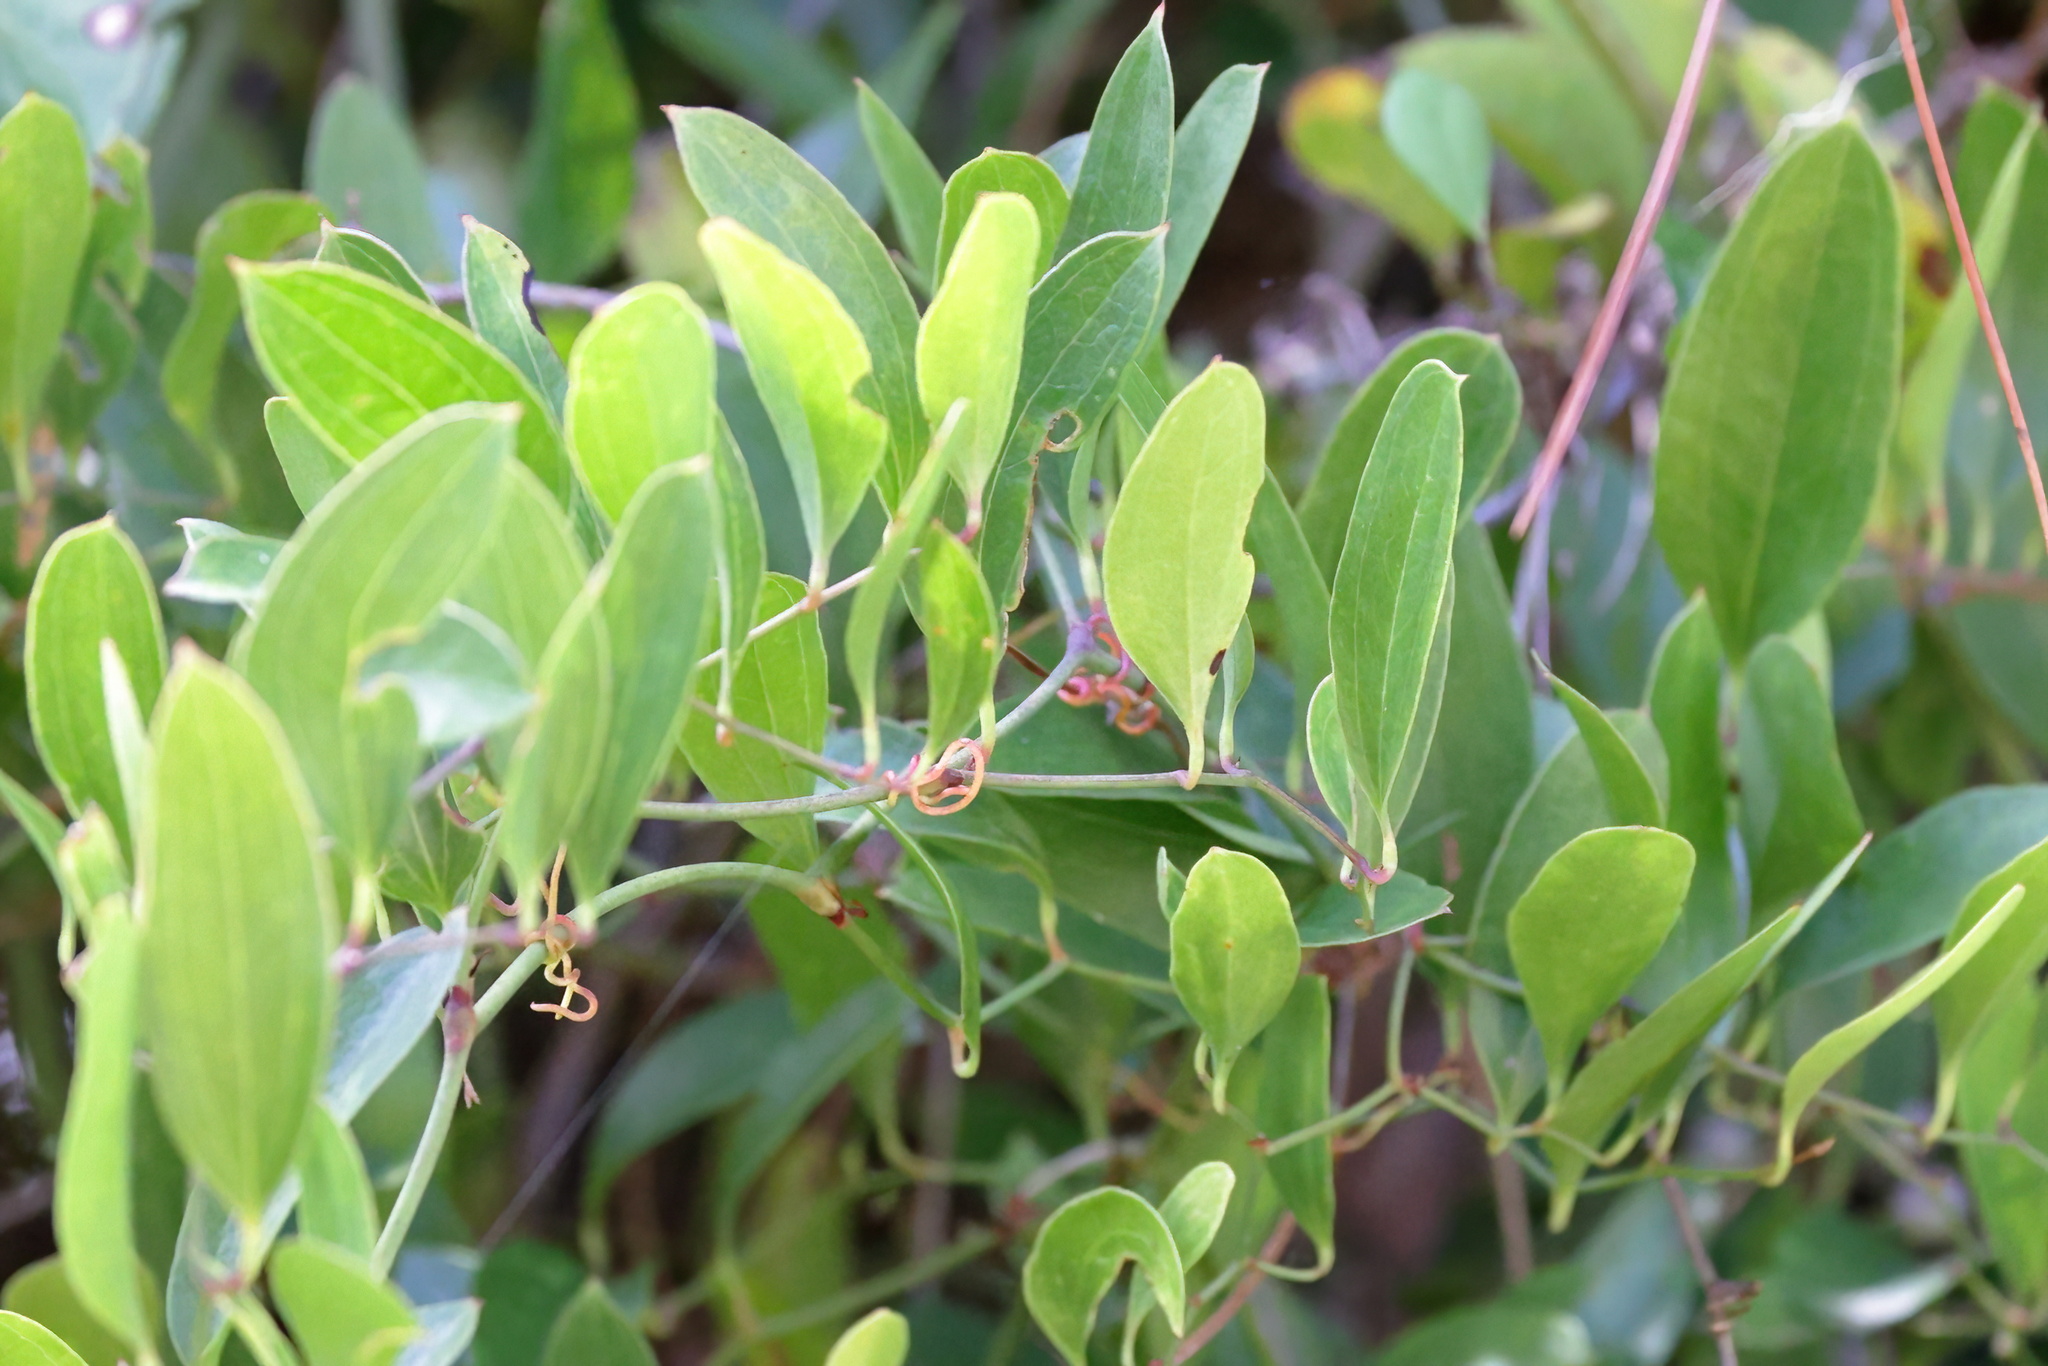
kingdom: Plantae
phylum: Tracheophyta
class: Liliopsida
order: Liliales
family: Smilacaceae
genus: Smilax
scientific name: Smilax auriculata
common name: Wild bamboo
